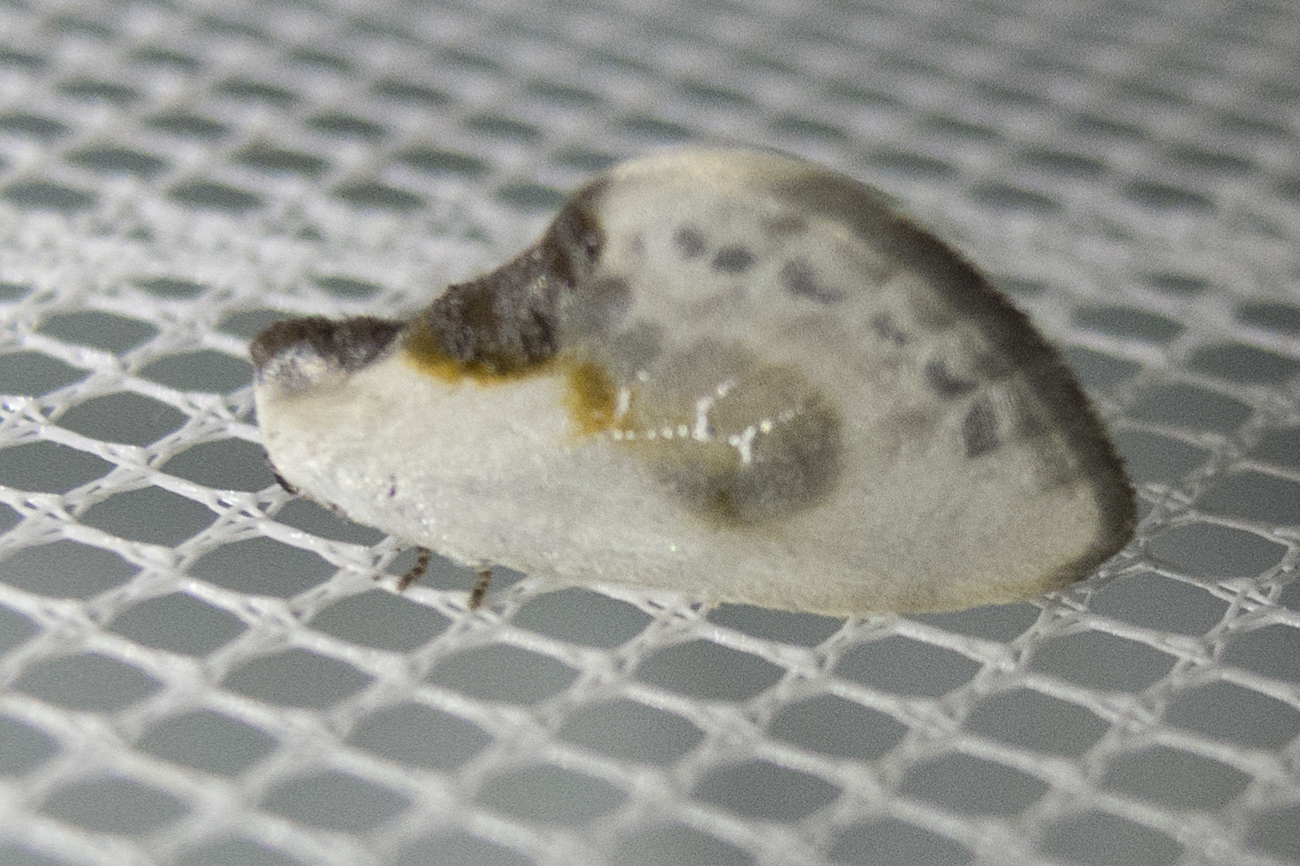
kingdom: Animalia
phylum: Arthropoda
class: Insecta
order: Lepidoptera
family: Drepanidae
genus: Cilix
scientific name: Cilix glaucata
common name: Chinese character
